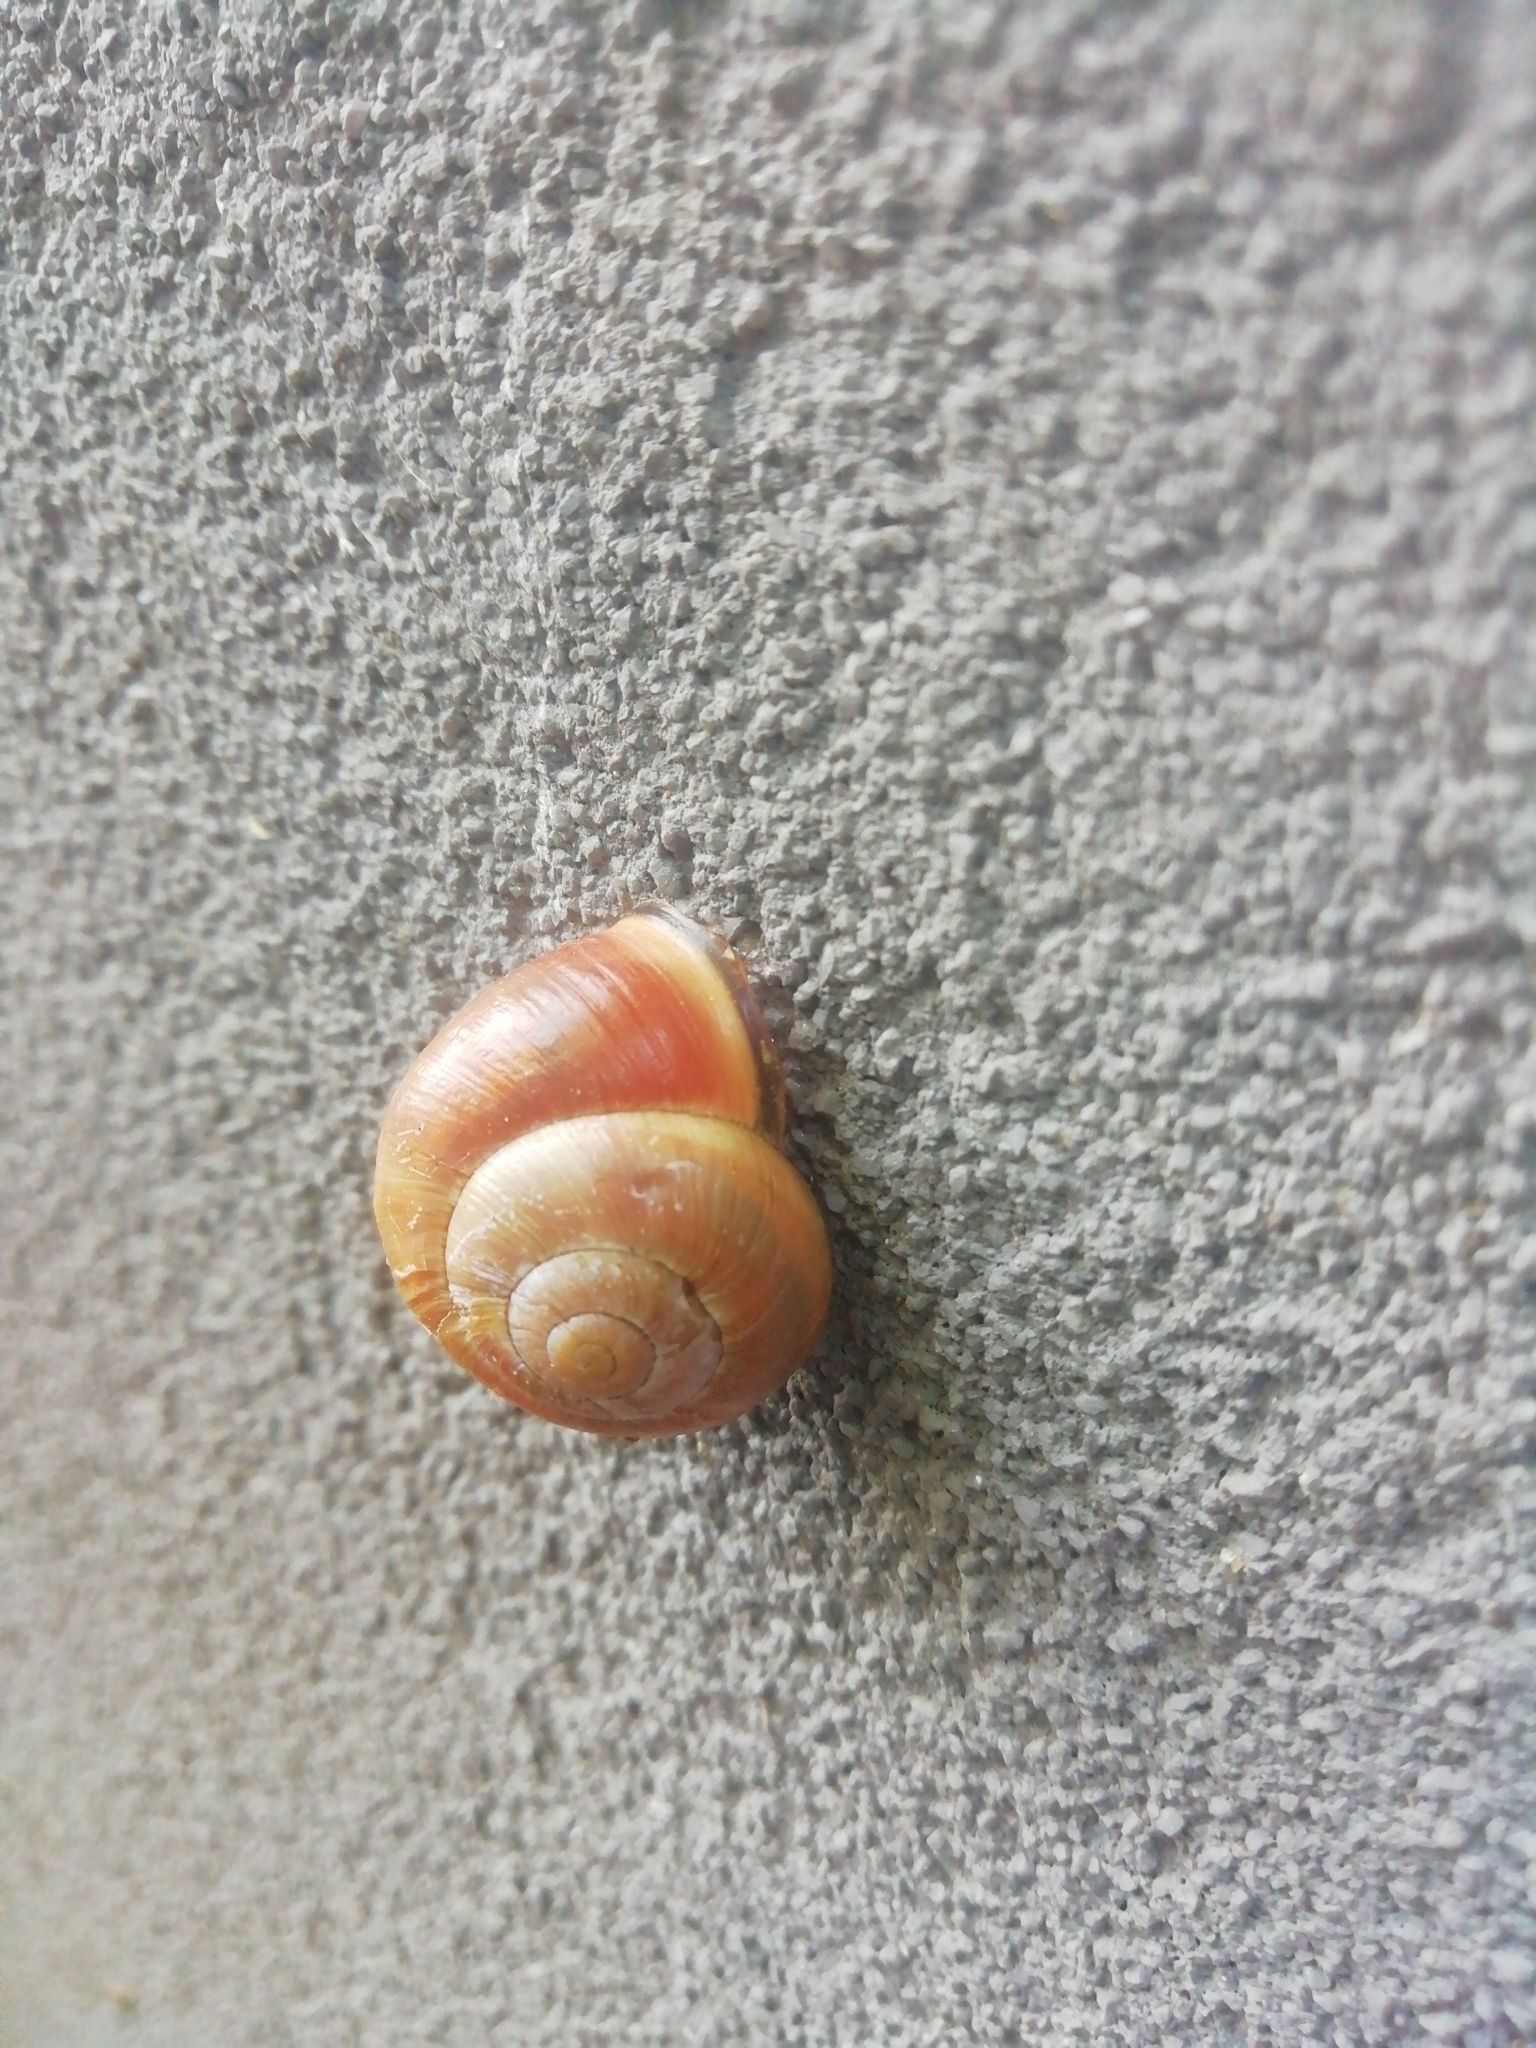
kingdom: Animalia
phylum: Mollusca
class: Gastropoda
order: Stylommatophora
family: Helicidae
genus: Cepaea
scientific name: Cepaea nemoralis
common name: Grovesnail
